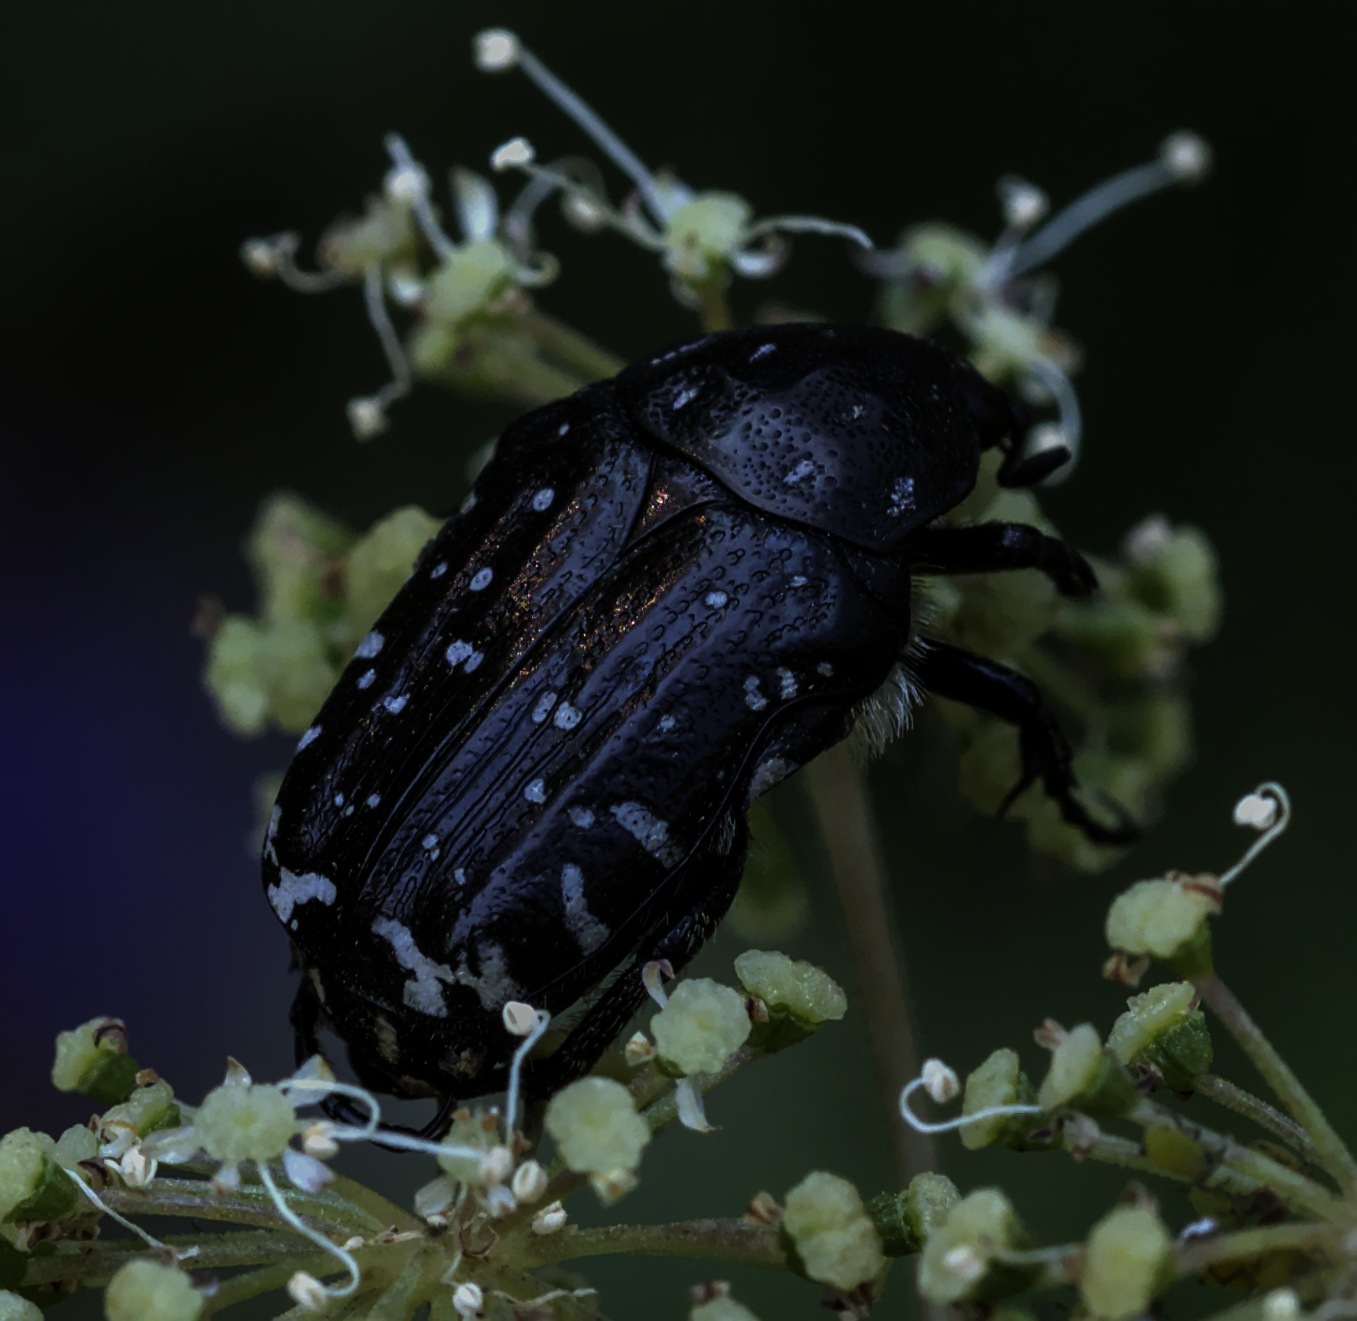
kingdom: Animalia
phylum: Arthropoda
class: Insecta
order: Coleoptera
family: Scarabaeidae
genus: Oxythyrea
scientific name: Oxythyrea funesta
